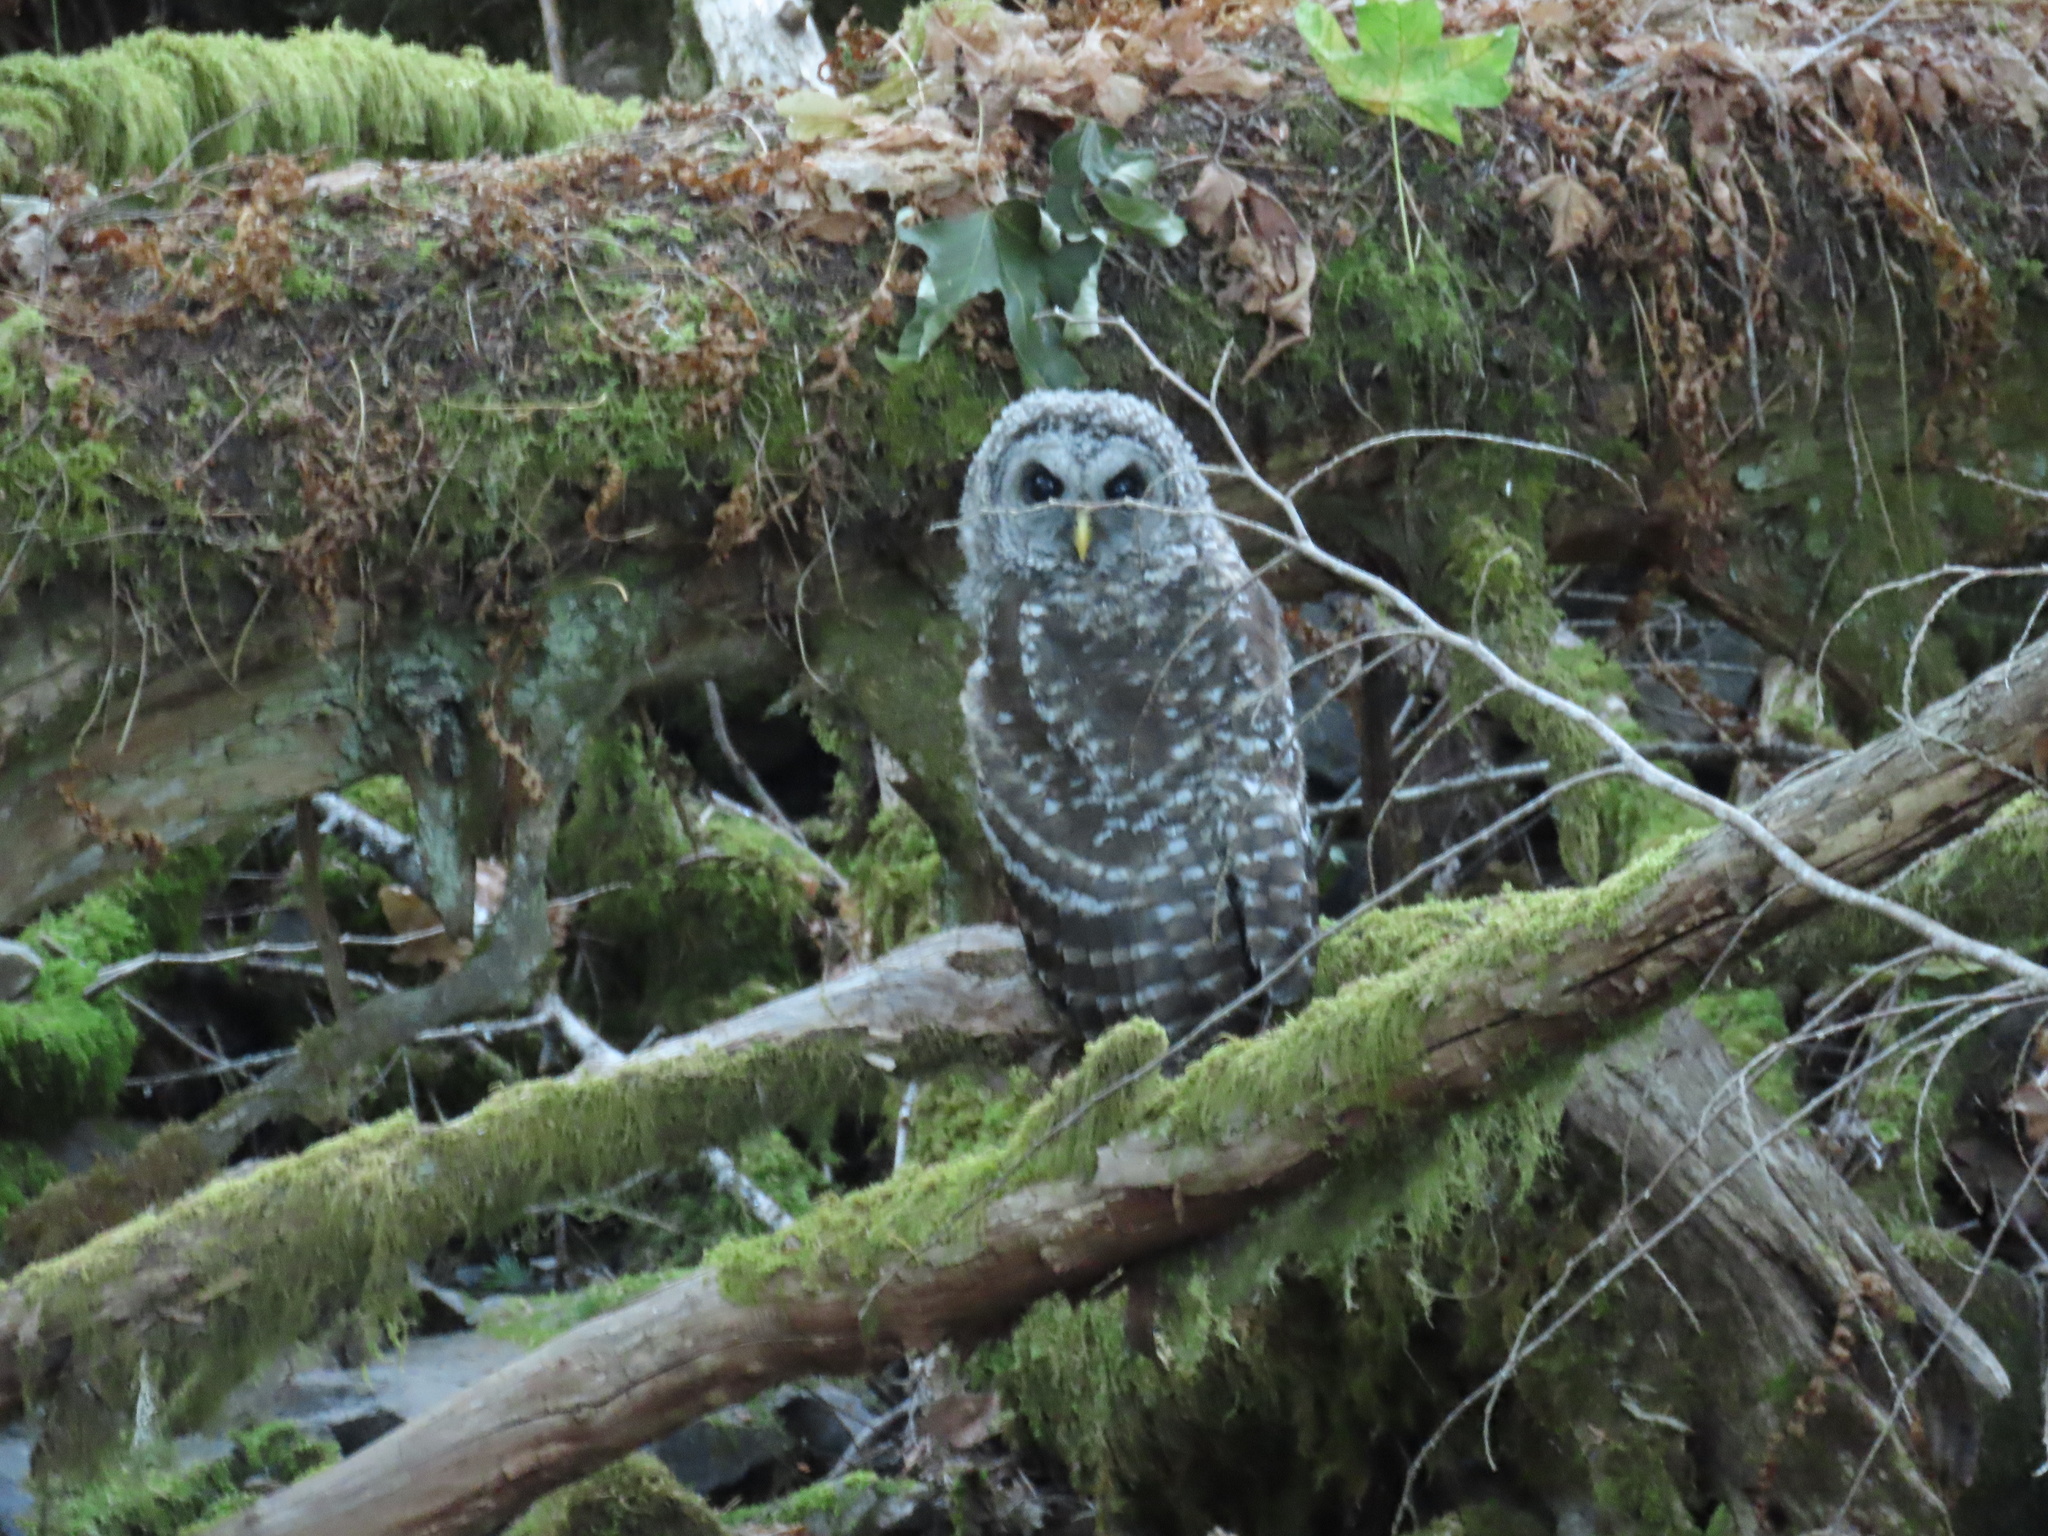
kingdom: Animalia
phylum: Chordata
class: Aves
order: Strigiformes
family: Strigidae
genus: Strix
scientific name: Strix varia
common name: Barred owl
